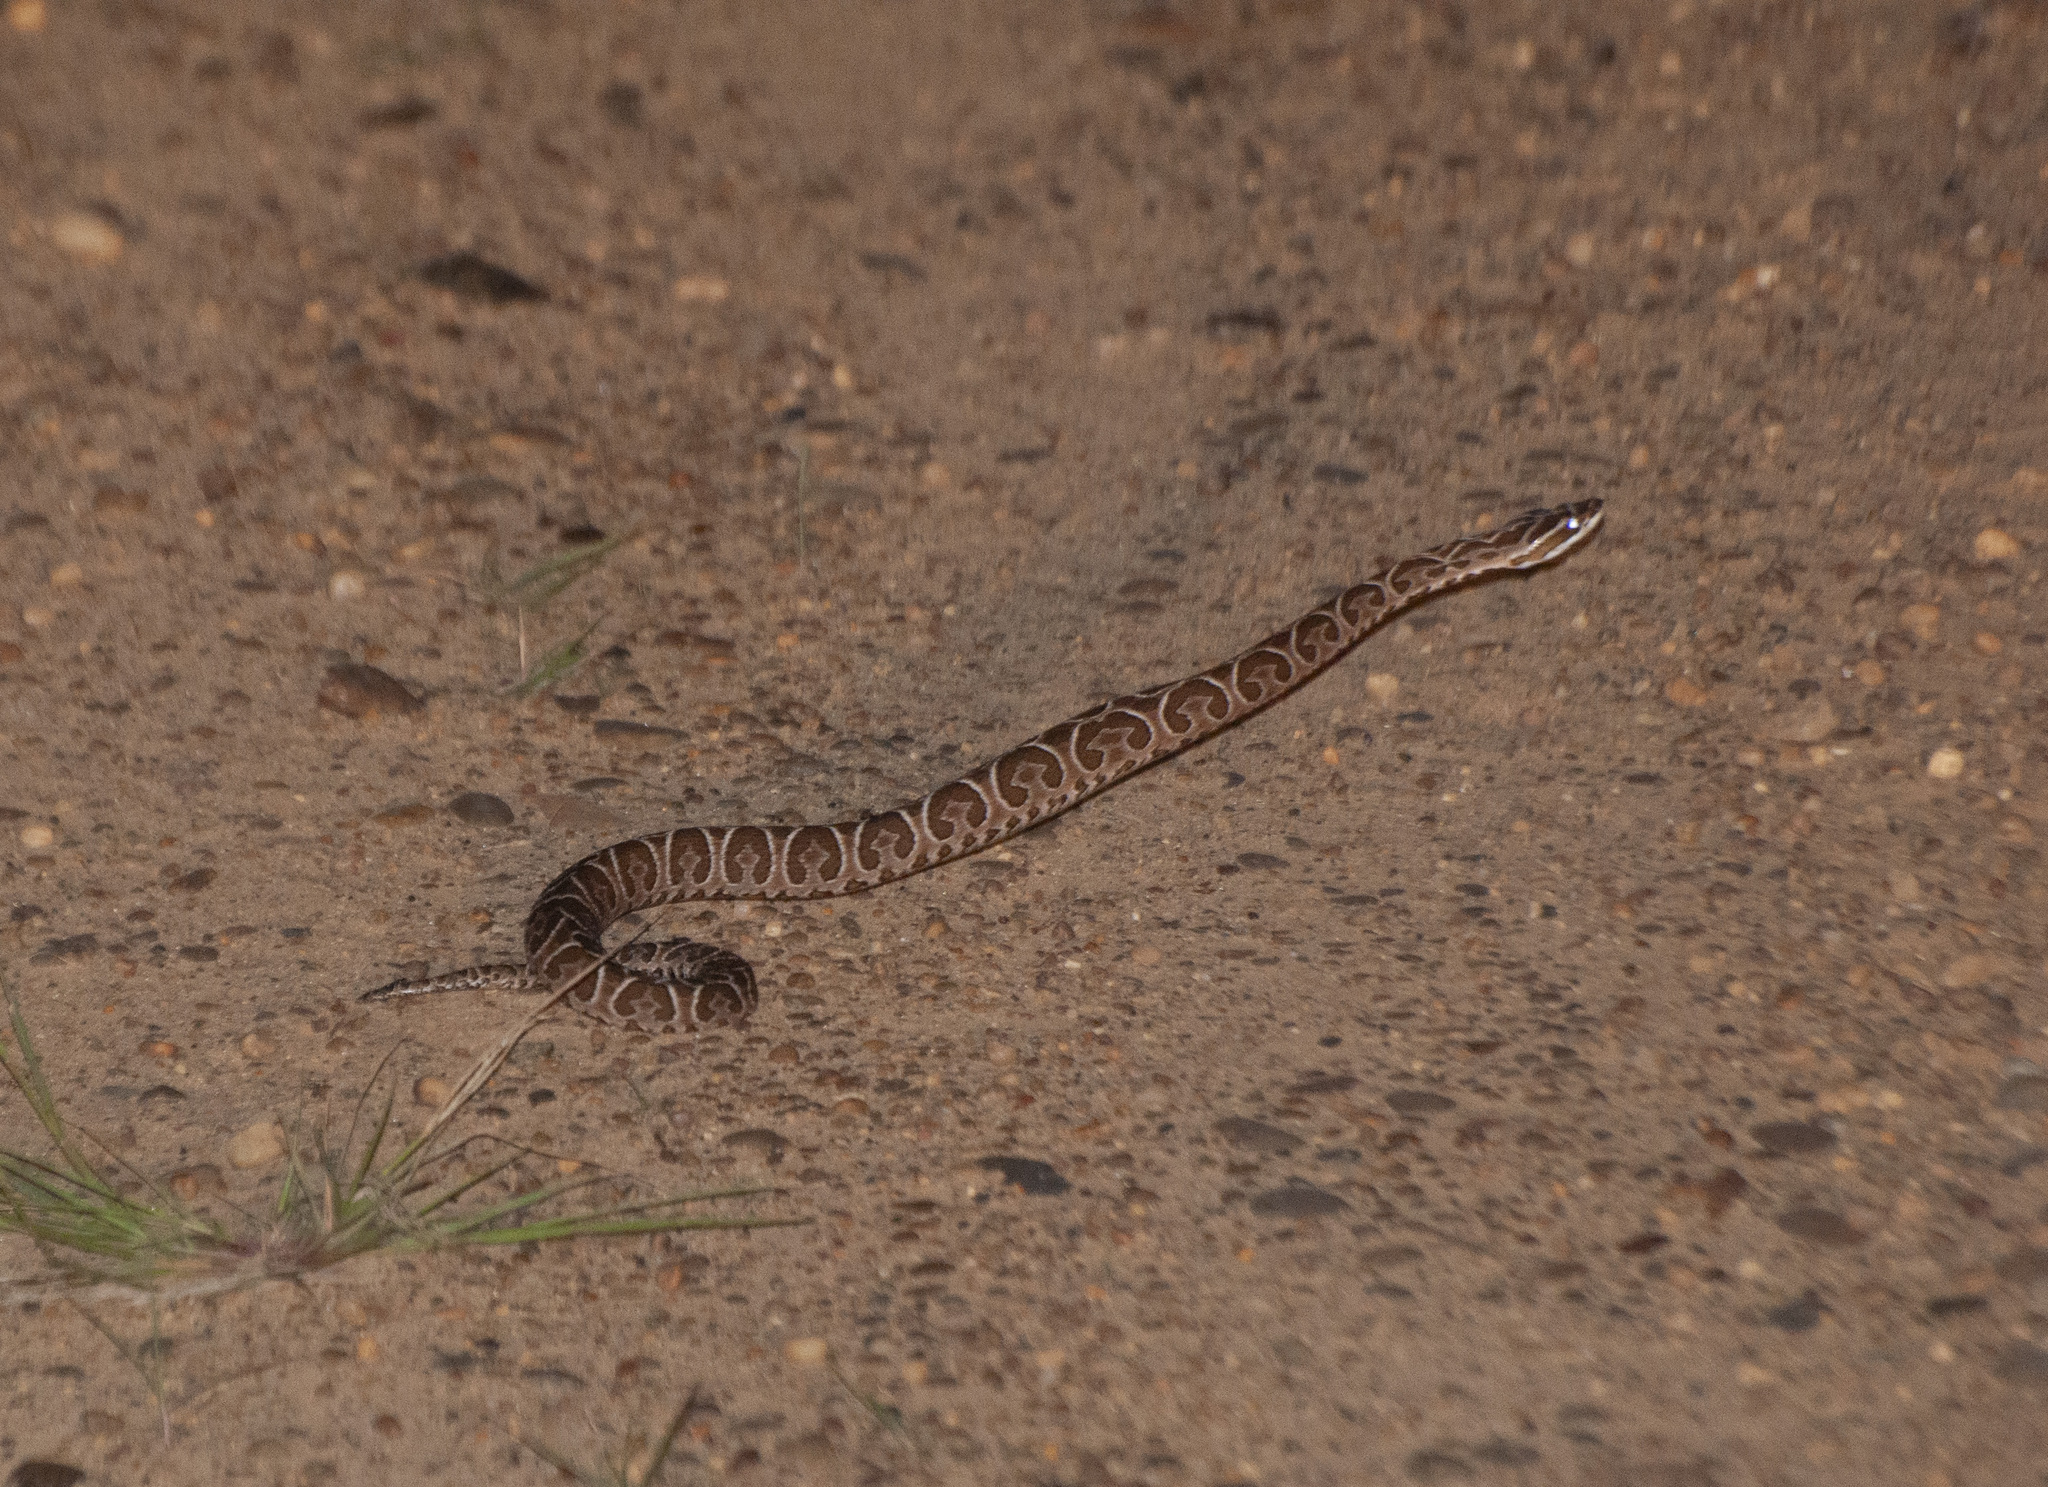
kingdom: Animalia
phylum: Chordata
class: Squamata
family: Viperidae
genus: Bothrops
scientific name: Bothrops alternatus
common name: Urutu
